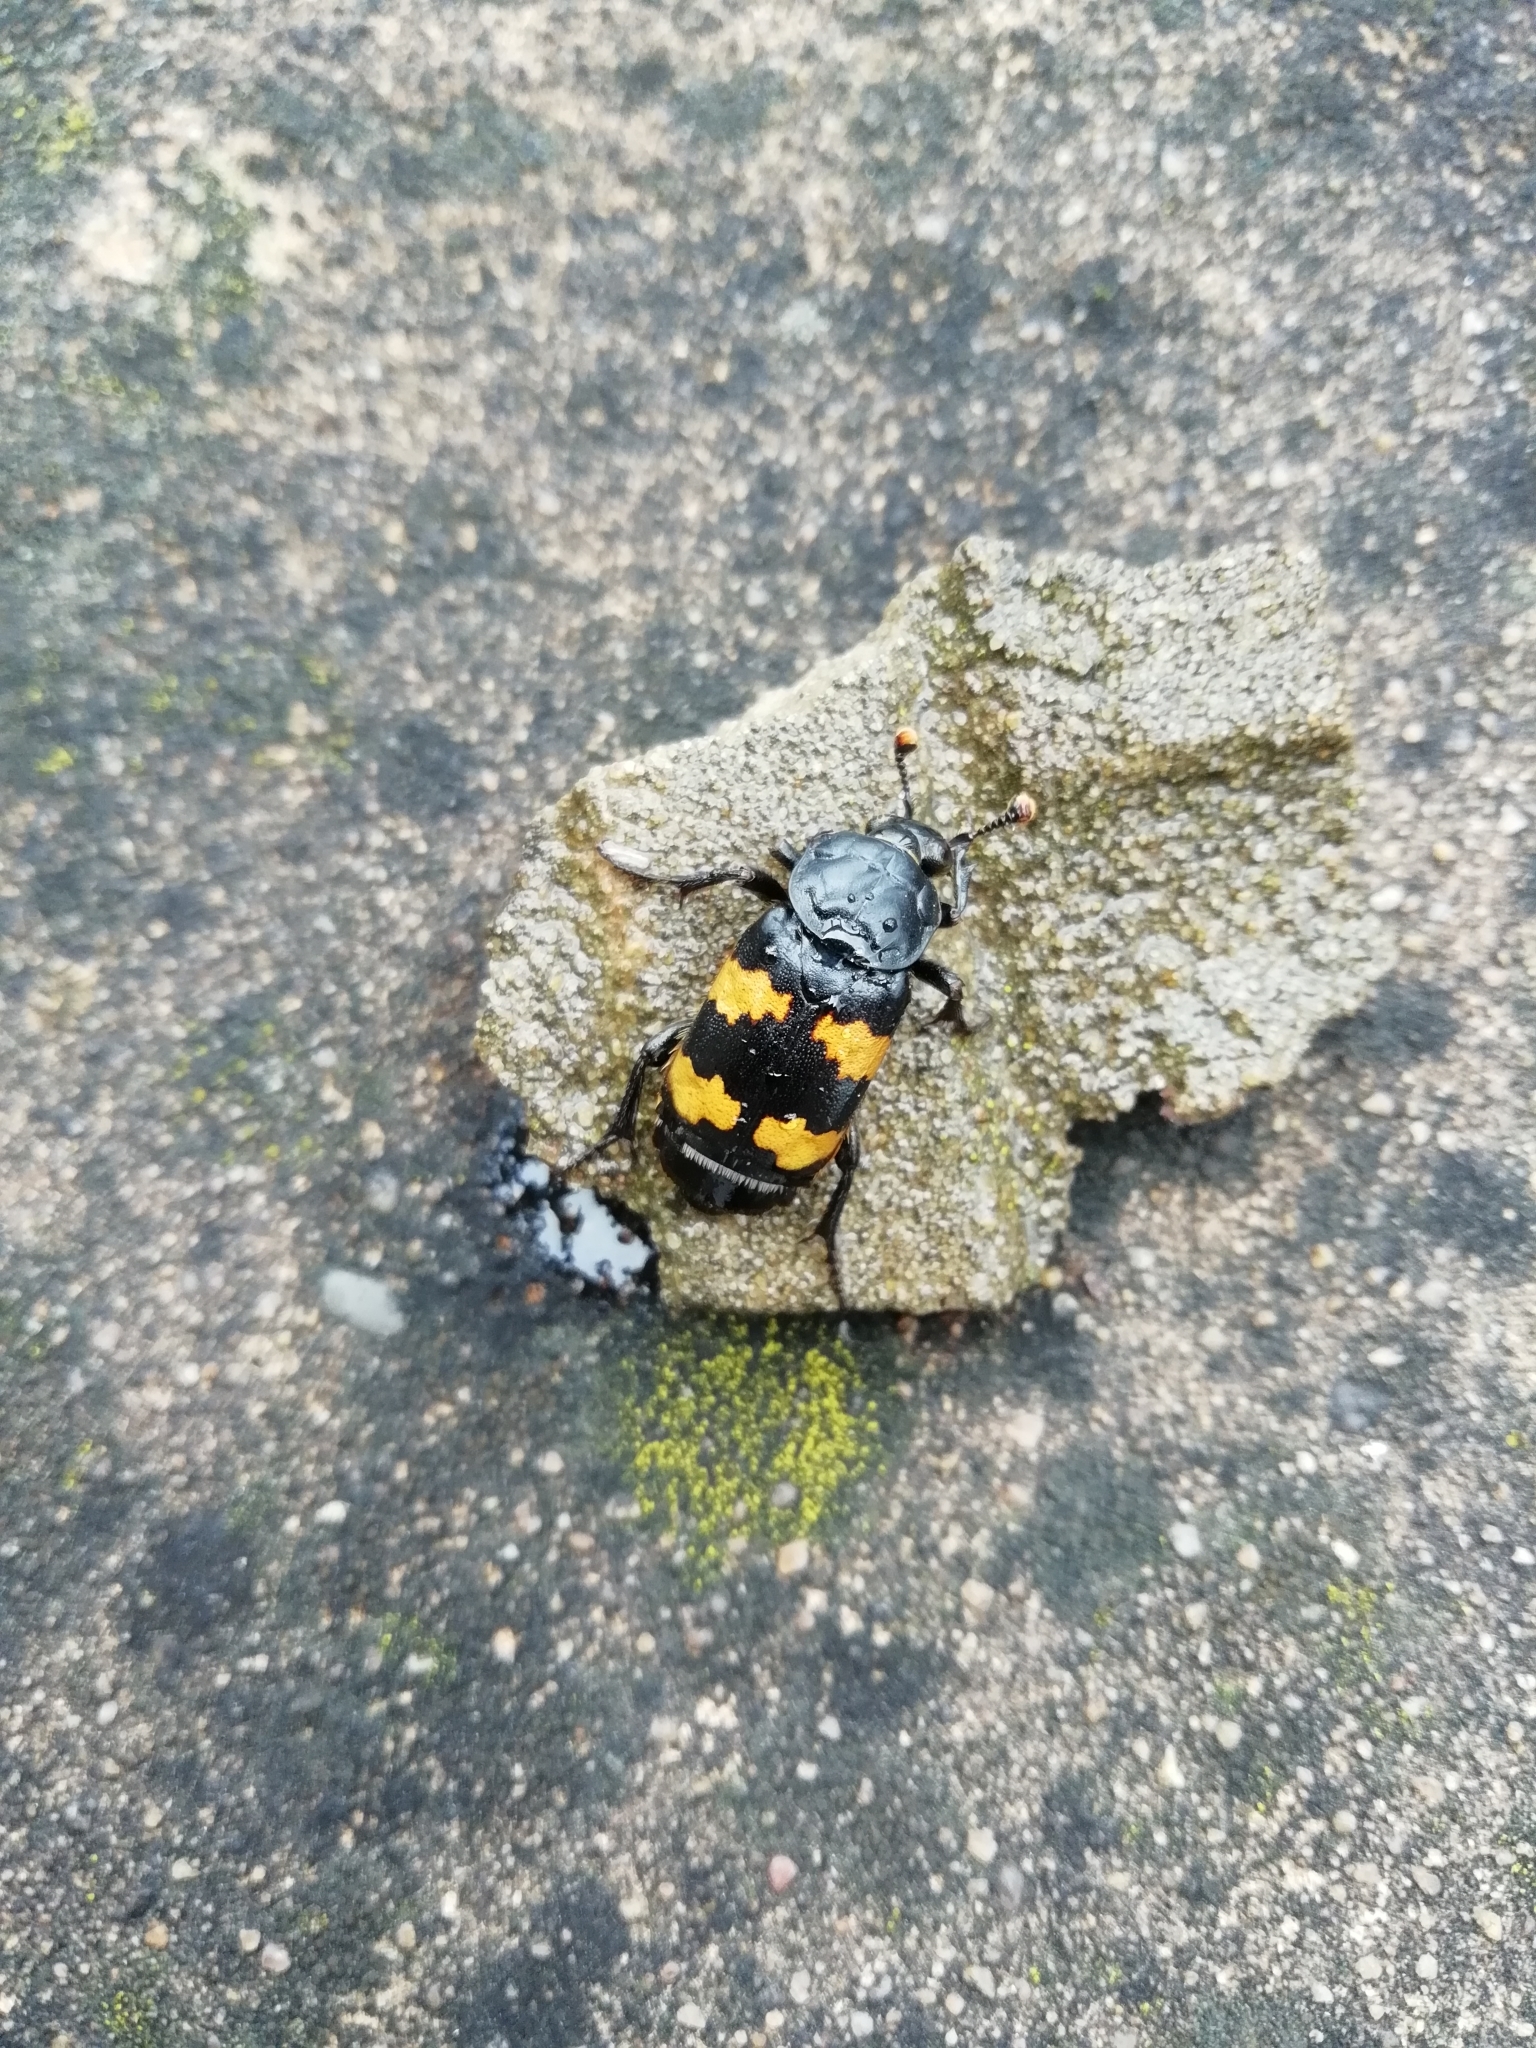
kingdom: Animalia
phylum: Arthropoda
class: Insecta
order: Coleoptera
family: Staphylinidae
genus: Nicrophorus
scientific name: Nicrophorus investigator
